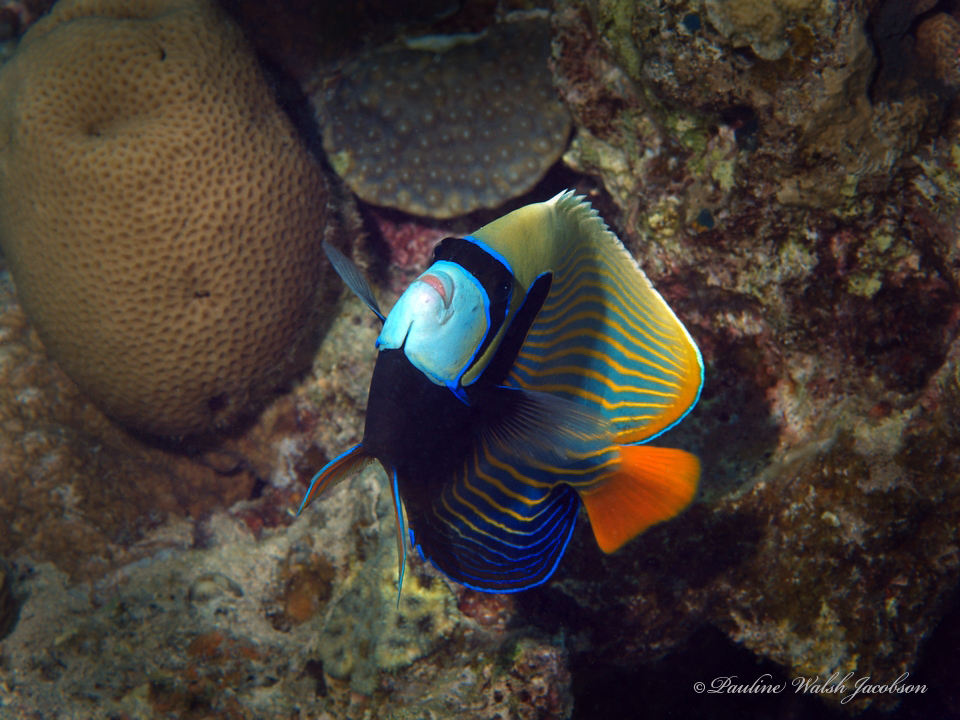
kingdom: Animalia
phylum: Chordata
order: Perciformes
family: Pomacanthidae
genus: Pomacanthus
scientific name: Pomacanthus imperator
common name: Emperor angelfish
